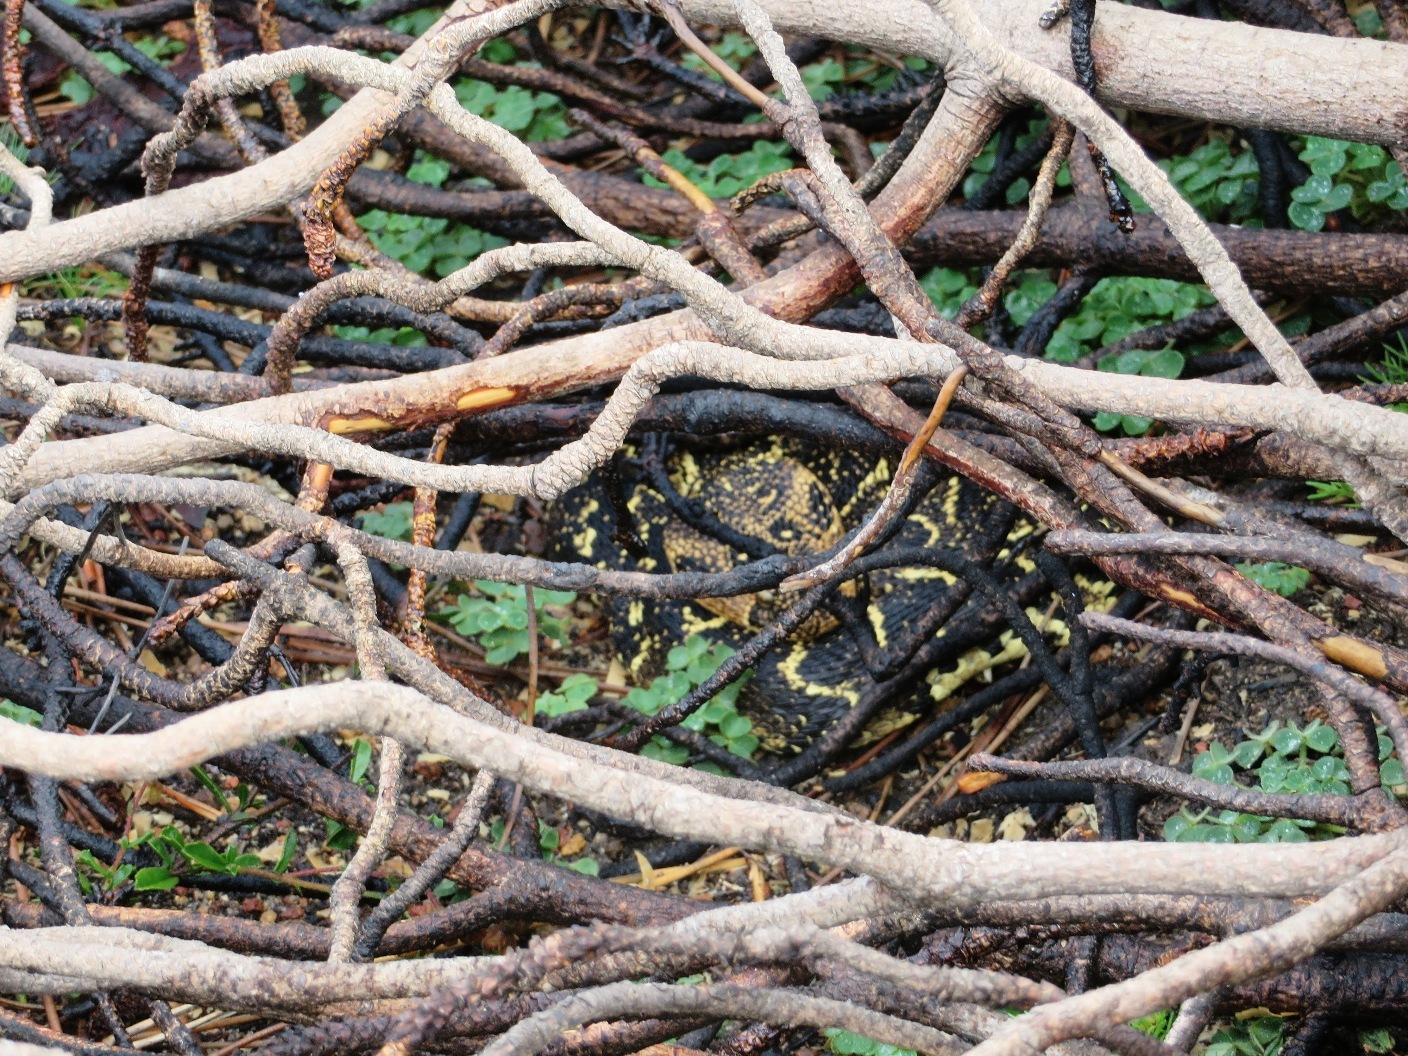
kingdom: Animalia
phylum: Chordata
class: Squamata
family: Viperidae
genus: Bitis
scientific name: Bitis arietans
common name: Puff adder
